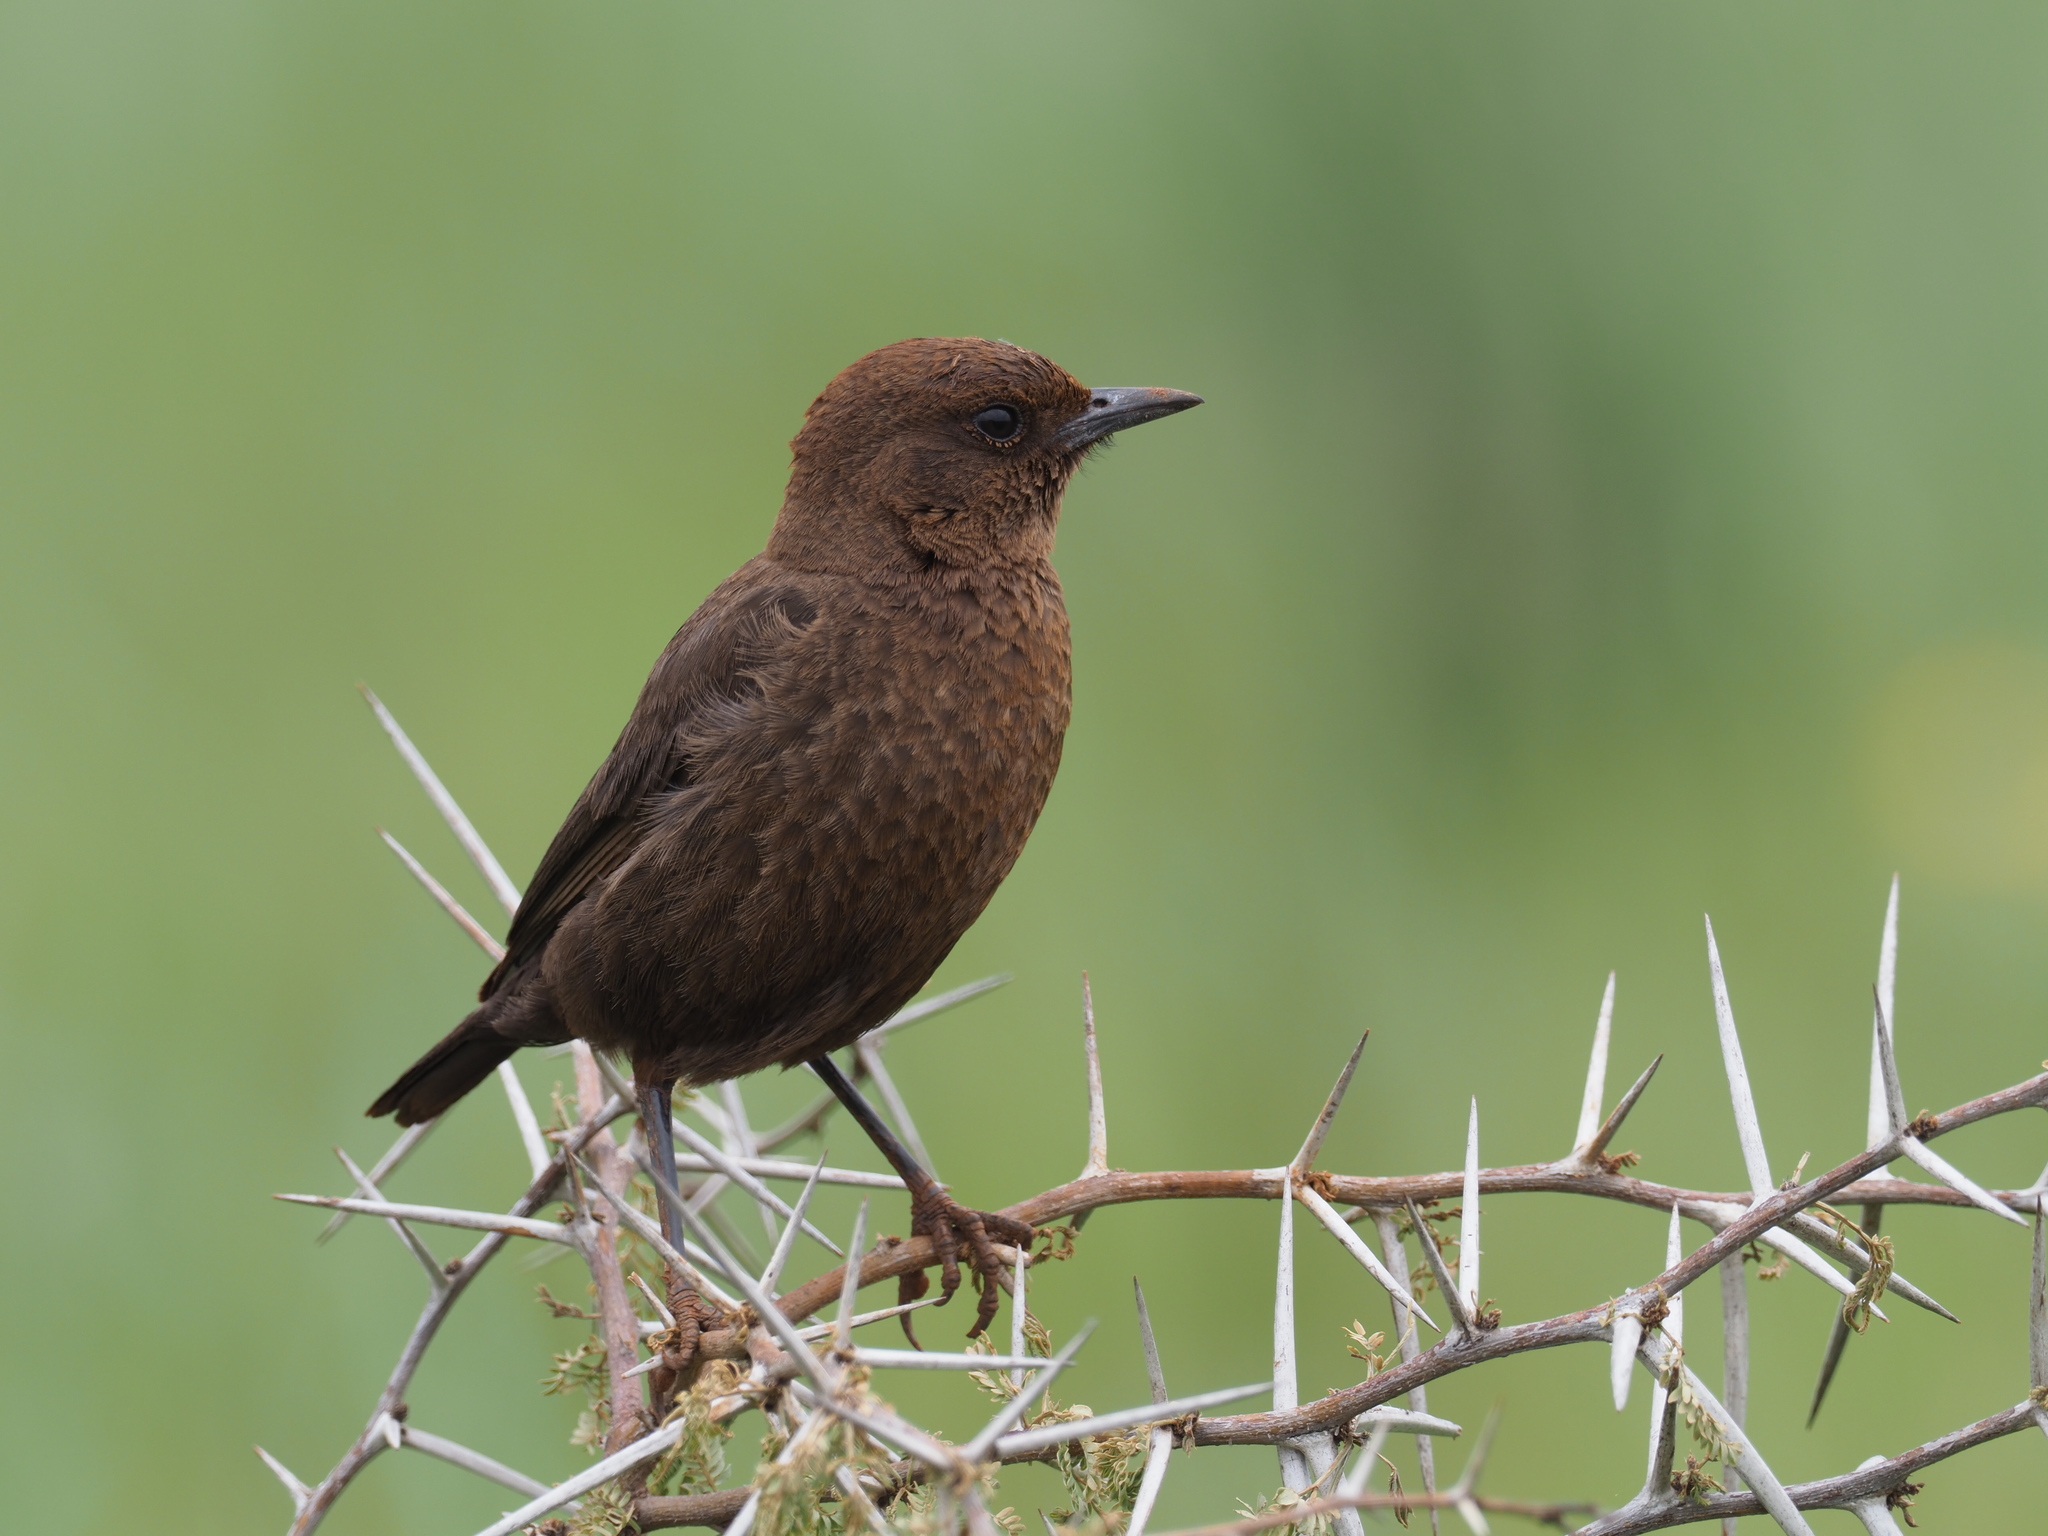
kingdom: Animalia
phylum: Chordata
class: Aves
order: Passeriformes
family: Muscicapidae
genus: Myrmecocichla
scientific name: Myrmecocichla formicivora
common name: Ant-eating chat
